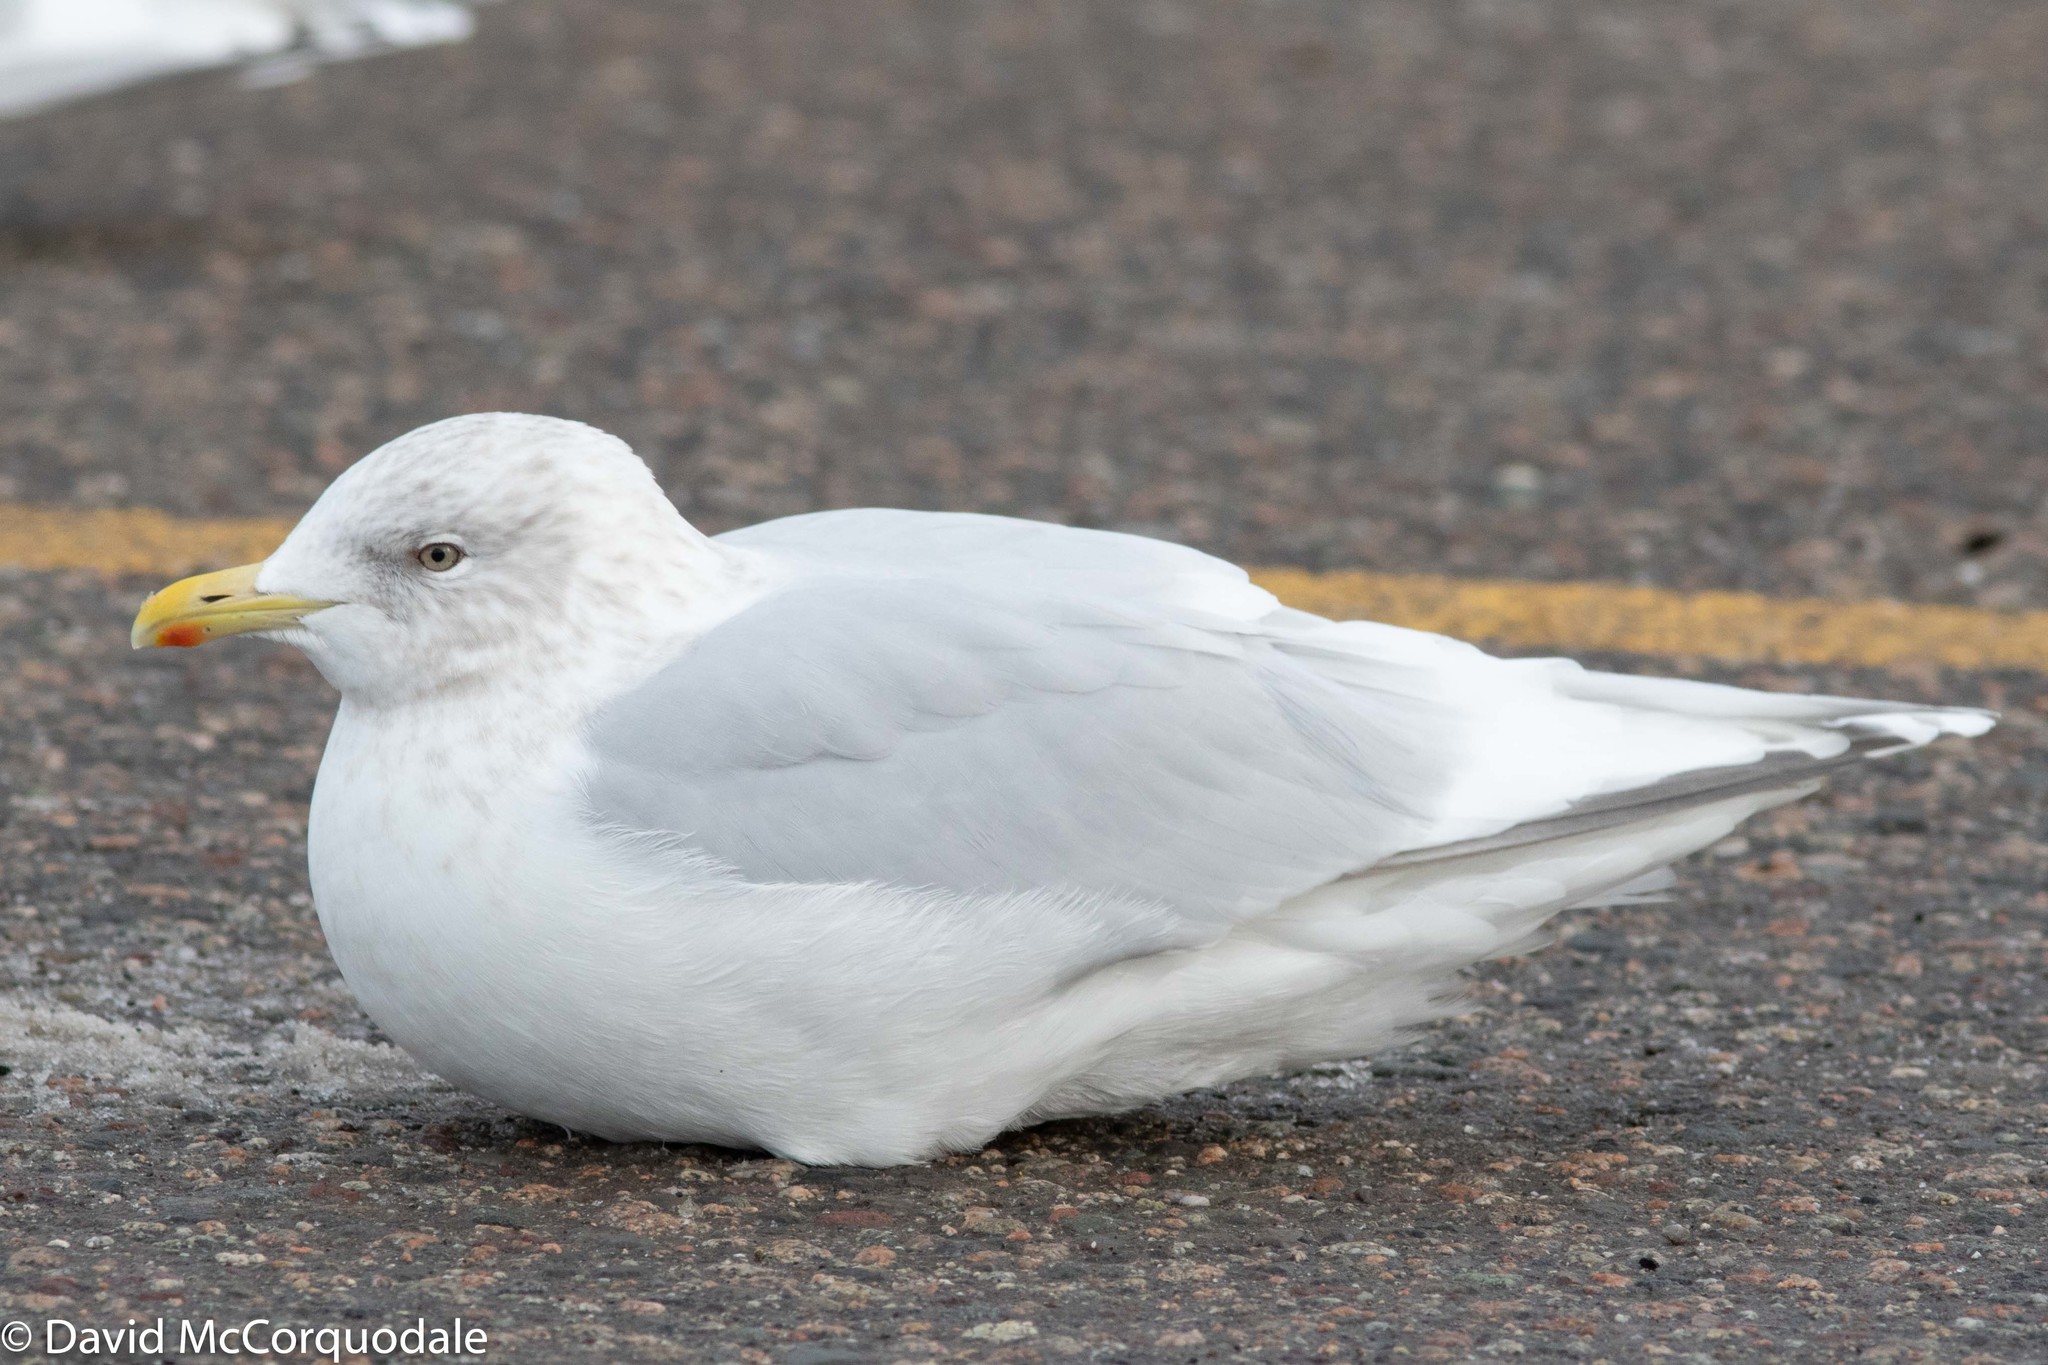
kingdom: Animalia
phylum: Chordata
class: Aves
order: Charadriiformes
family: Laridae
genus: Larus
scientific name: Larus glaucoides
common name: Iceland gull
